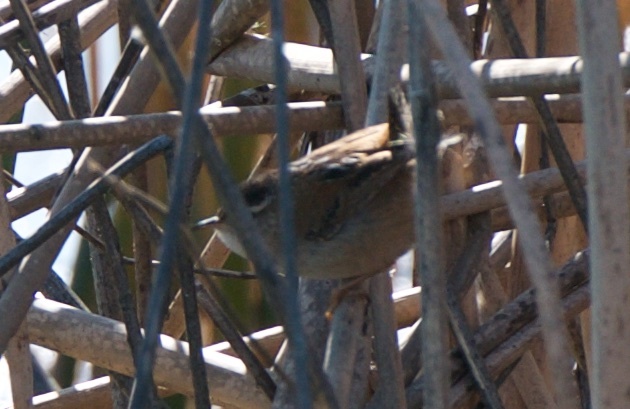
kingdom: Animalia
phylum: Chordata
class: Aves
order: Passeriformes
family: Troglodytidae
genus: Cistothorus
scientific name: Cistothorus palustris
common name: Marsh wren
